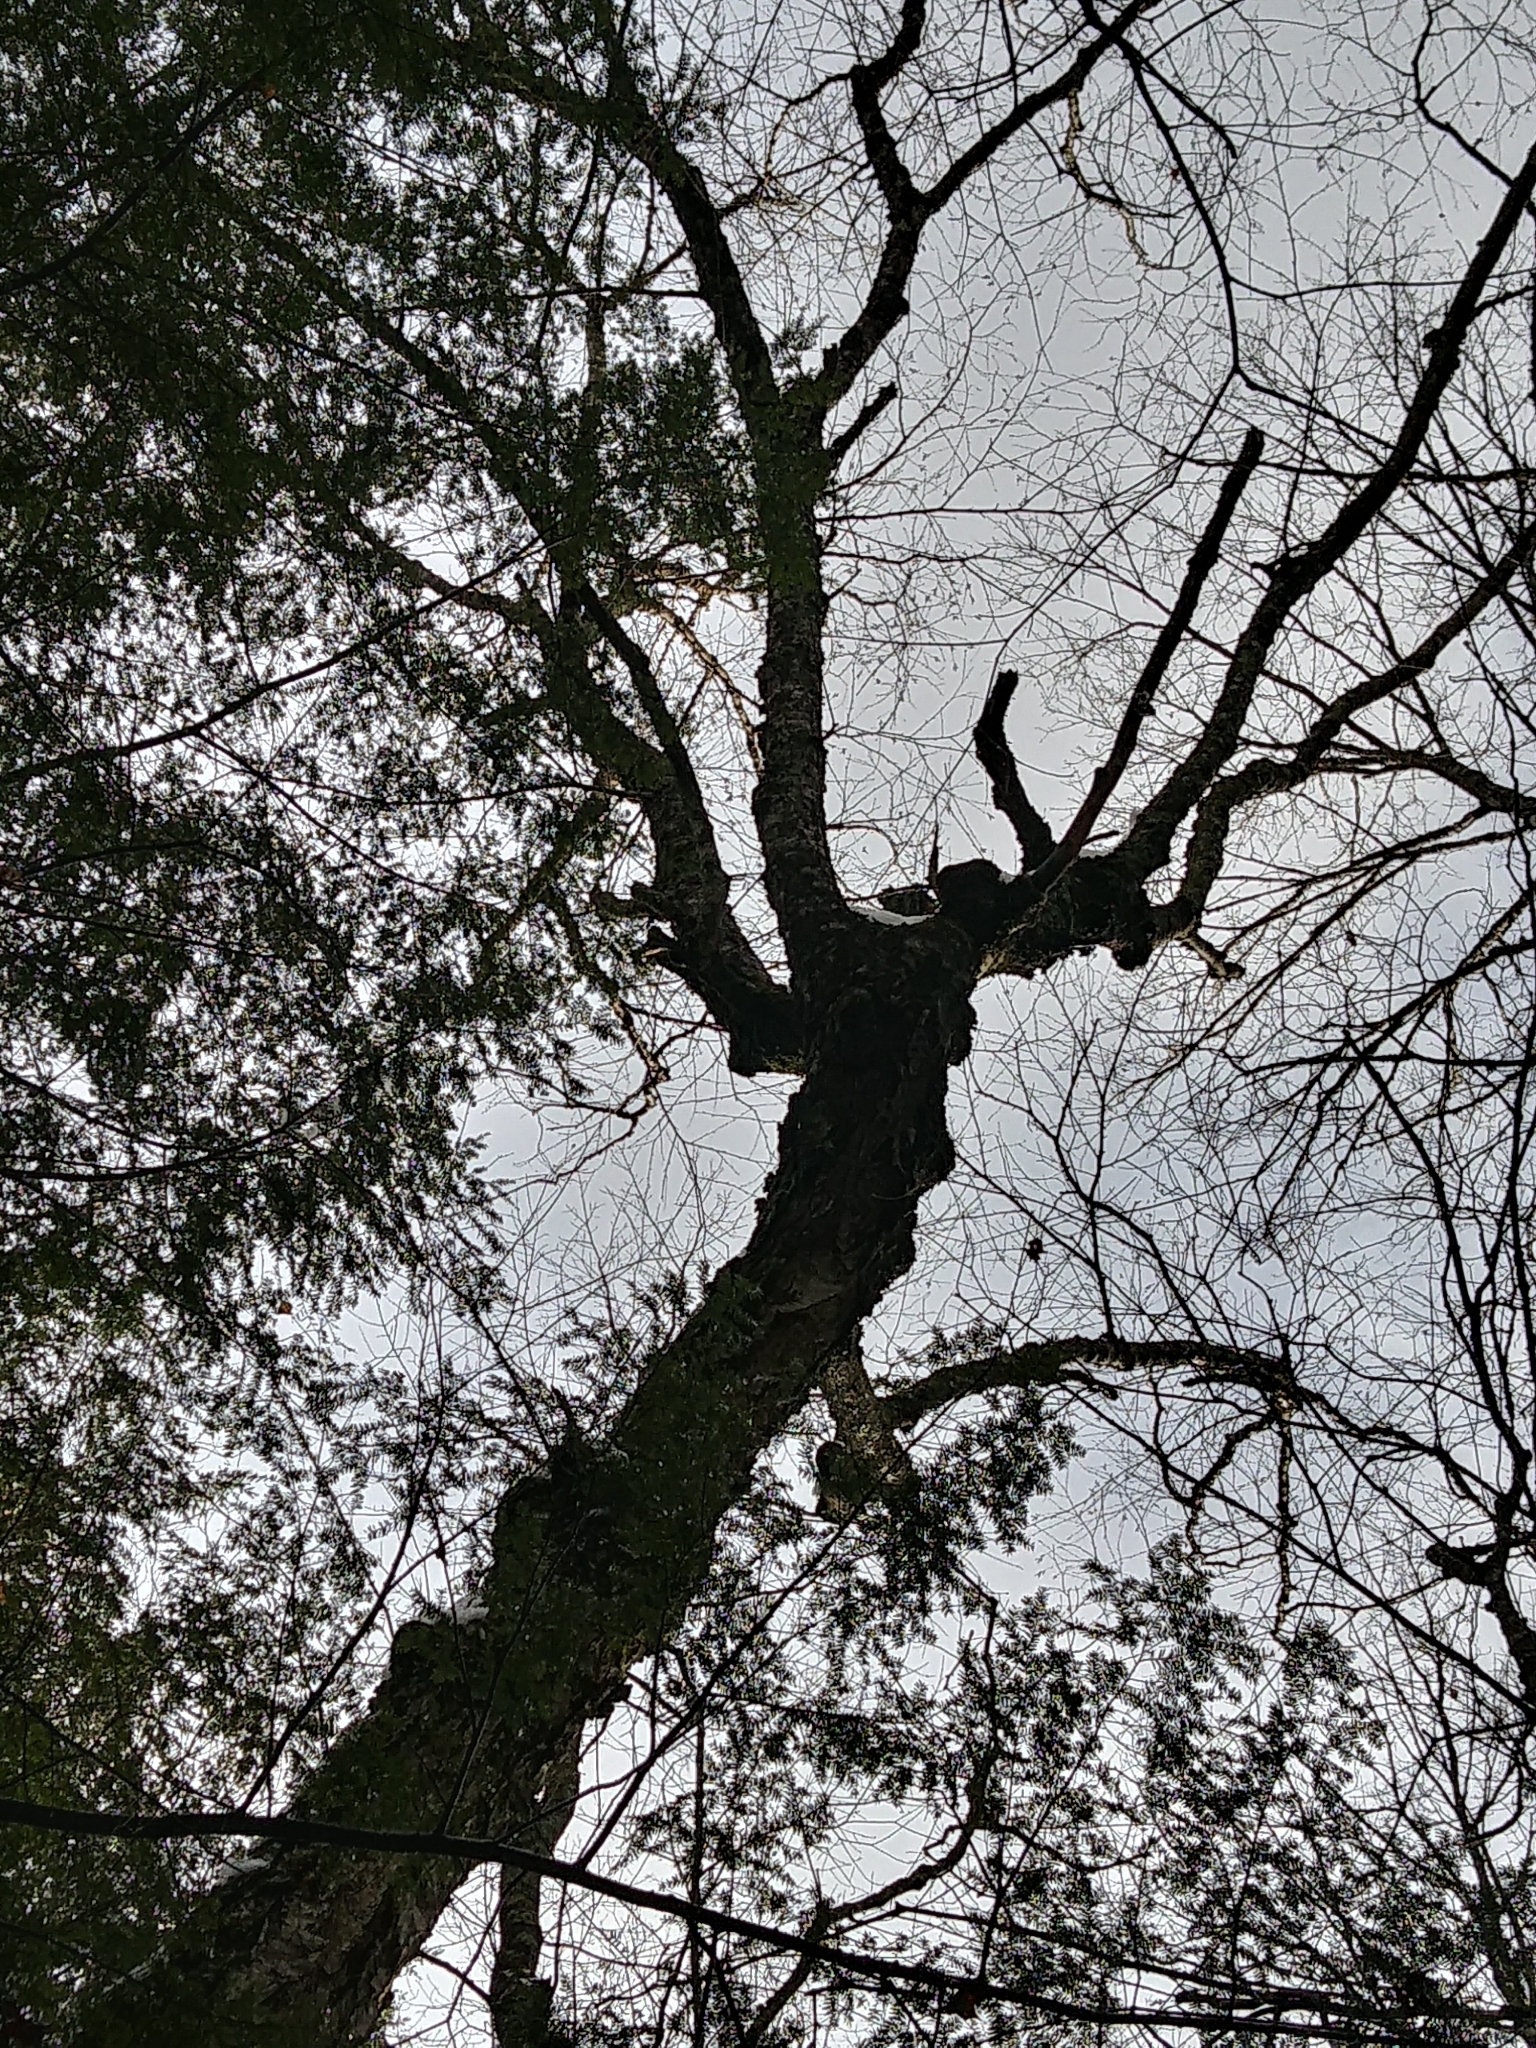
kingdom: Plantae
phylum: Tracheophyta
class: Magnoliopsida
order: Fagales
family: Betulaceae
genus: Betula
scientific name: Betula alleghaniensis
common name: Yellow birch
